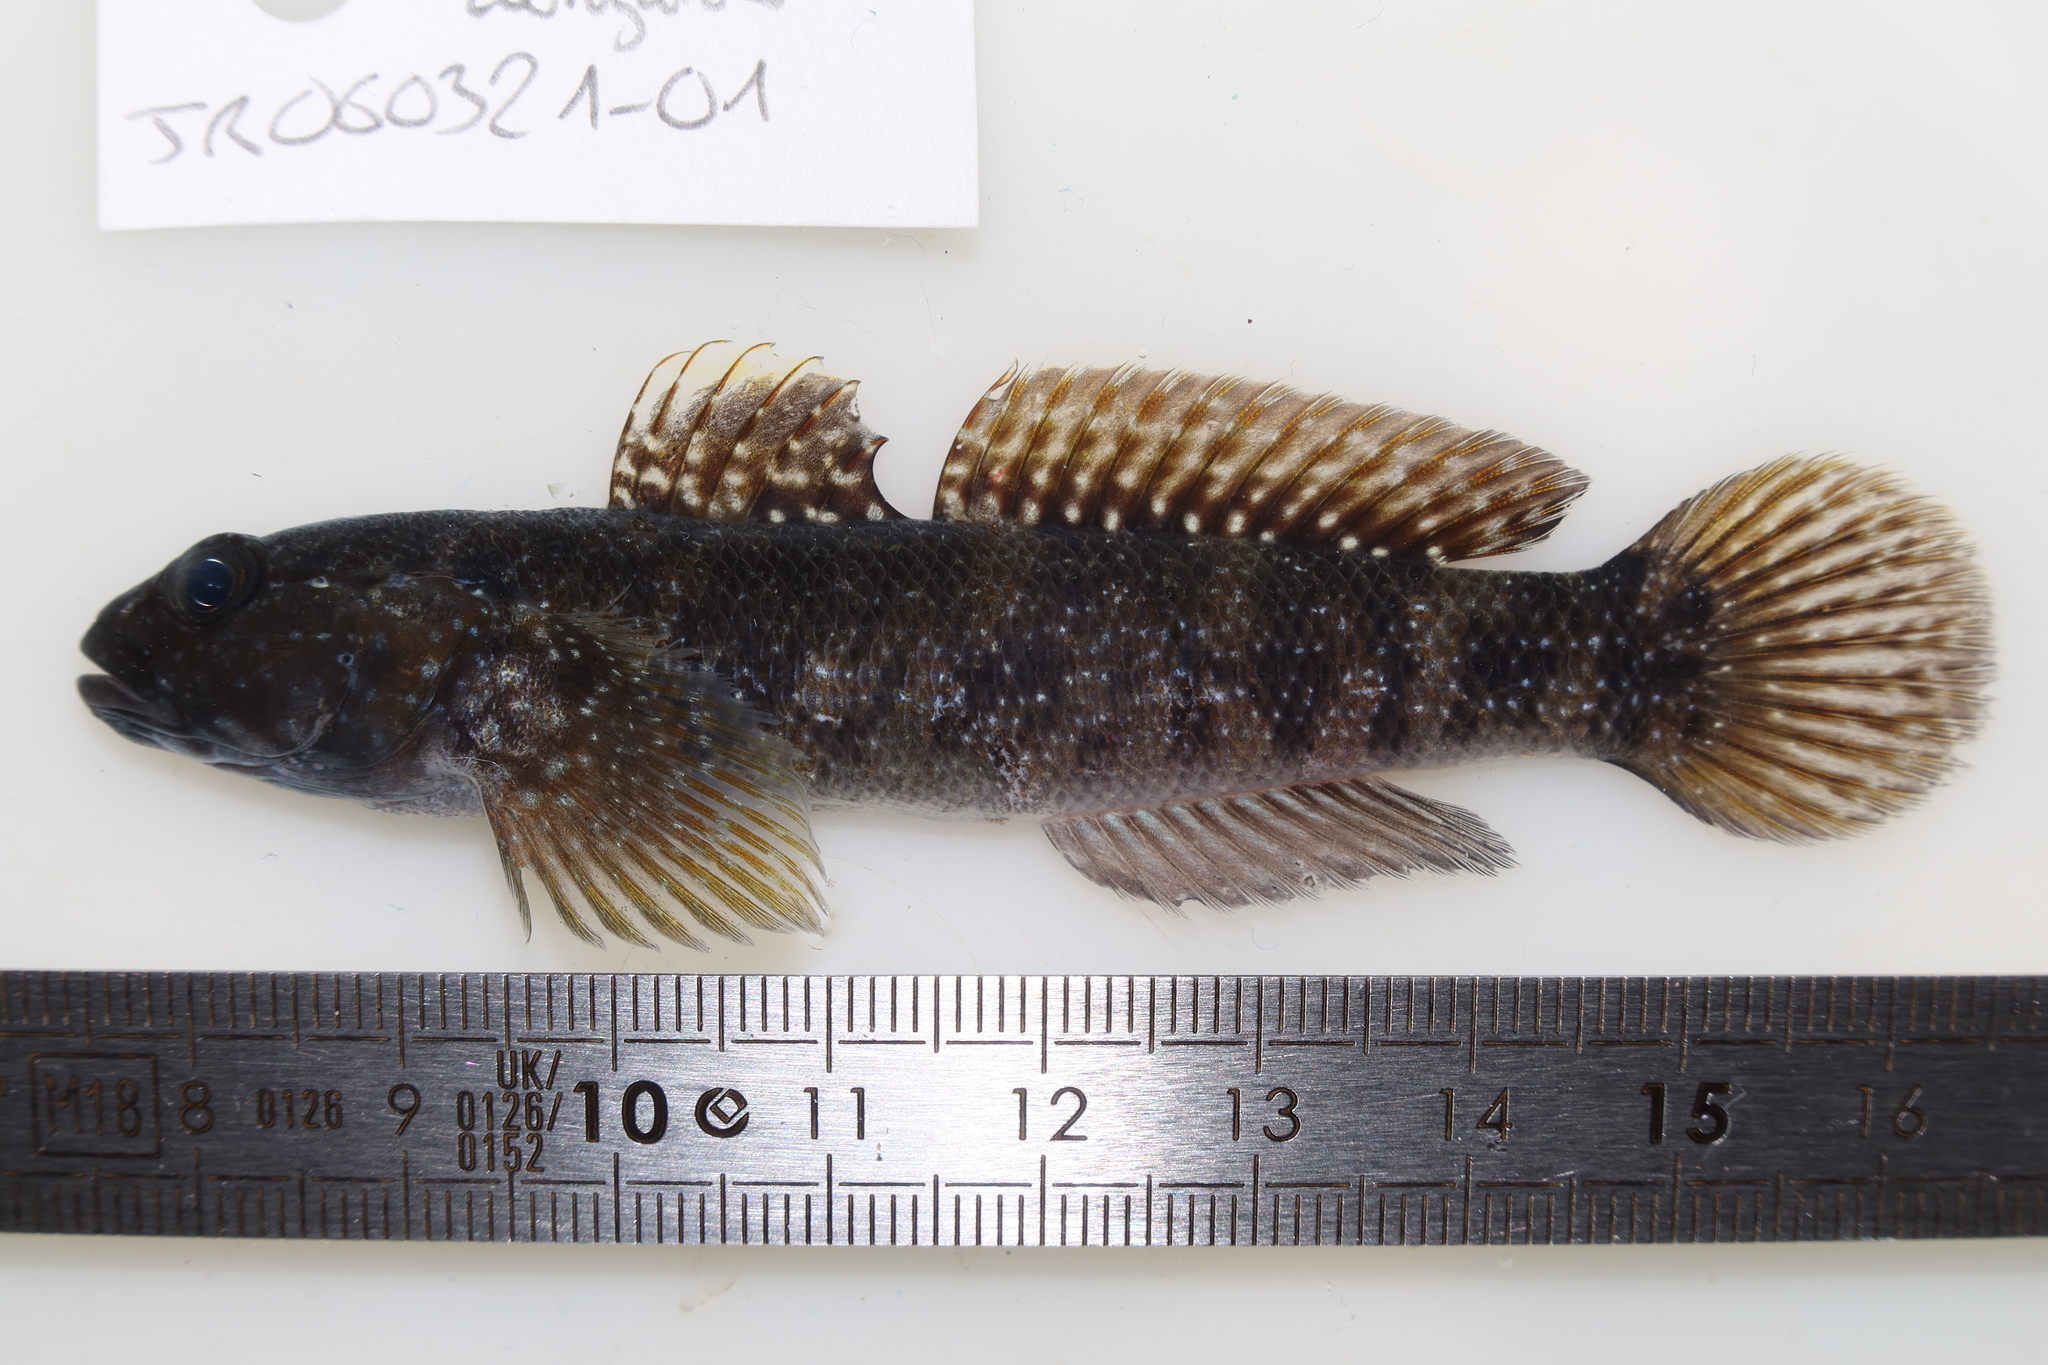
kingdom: Animalia
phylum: Chordata
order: Perciformes
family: Gobiidae
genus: Mauligobius
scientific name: Mauligobius maderensis
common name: Rock goby
